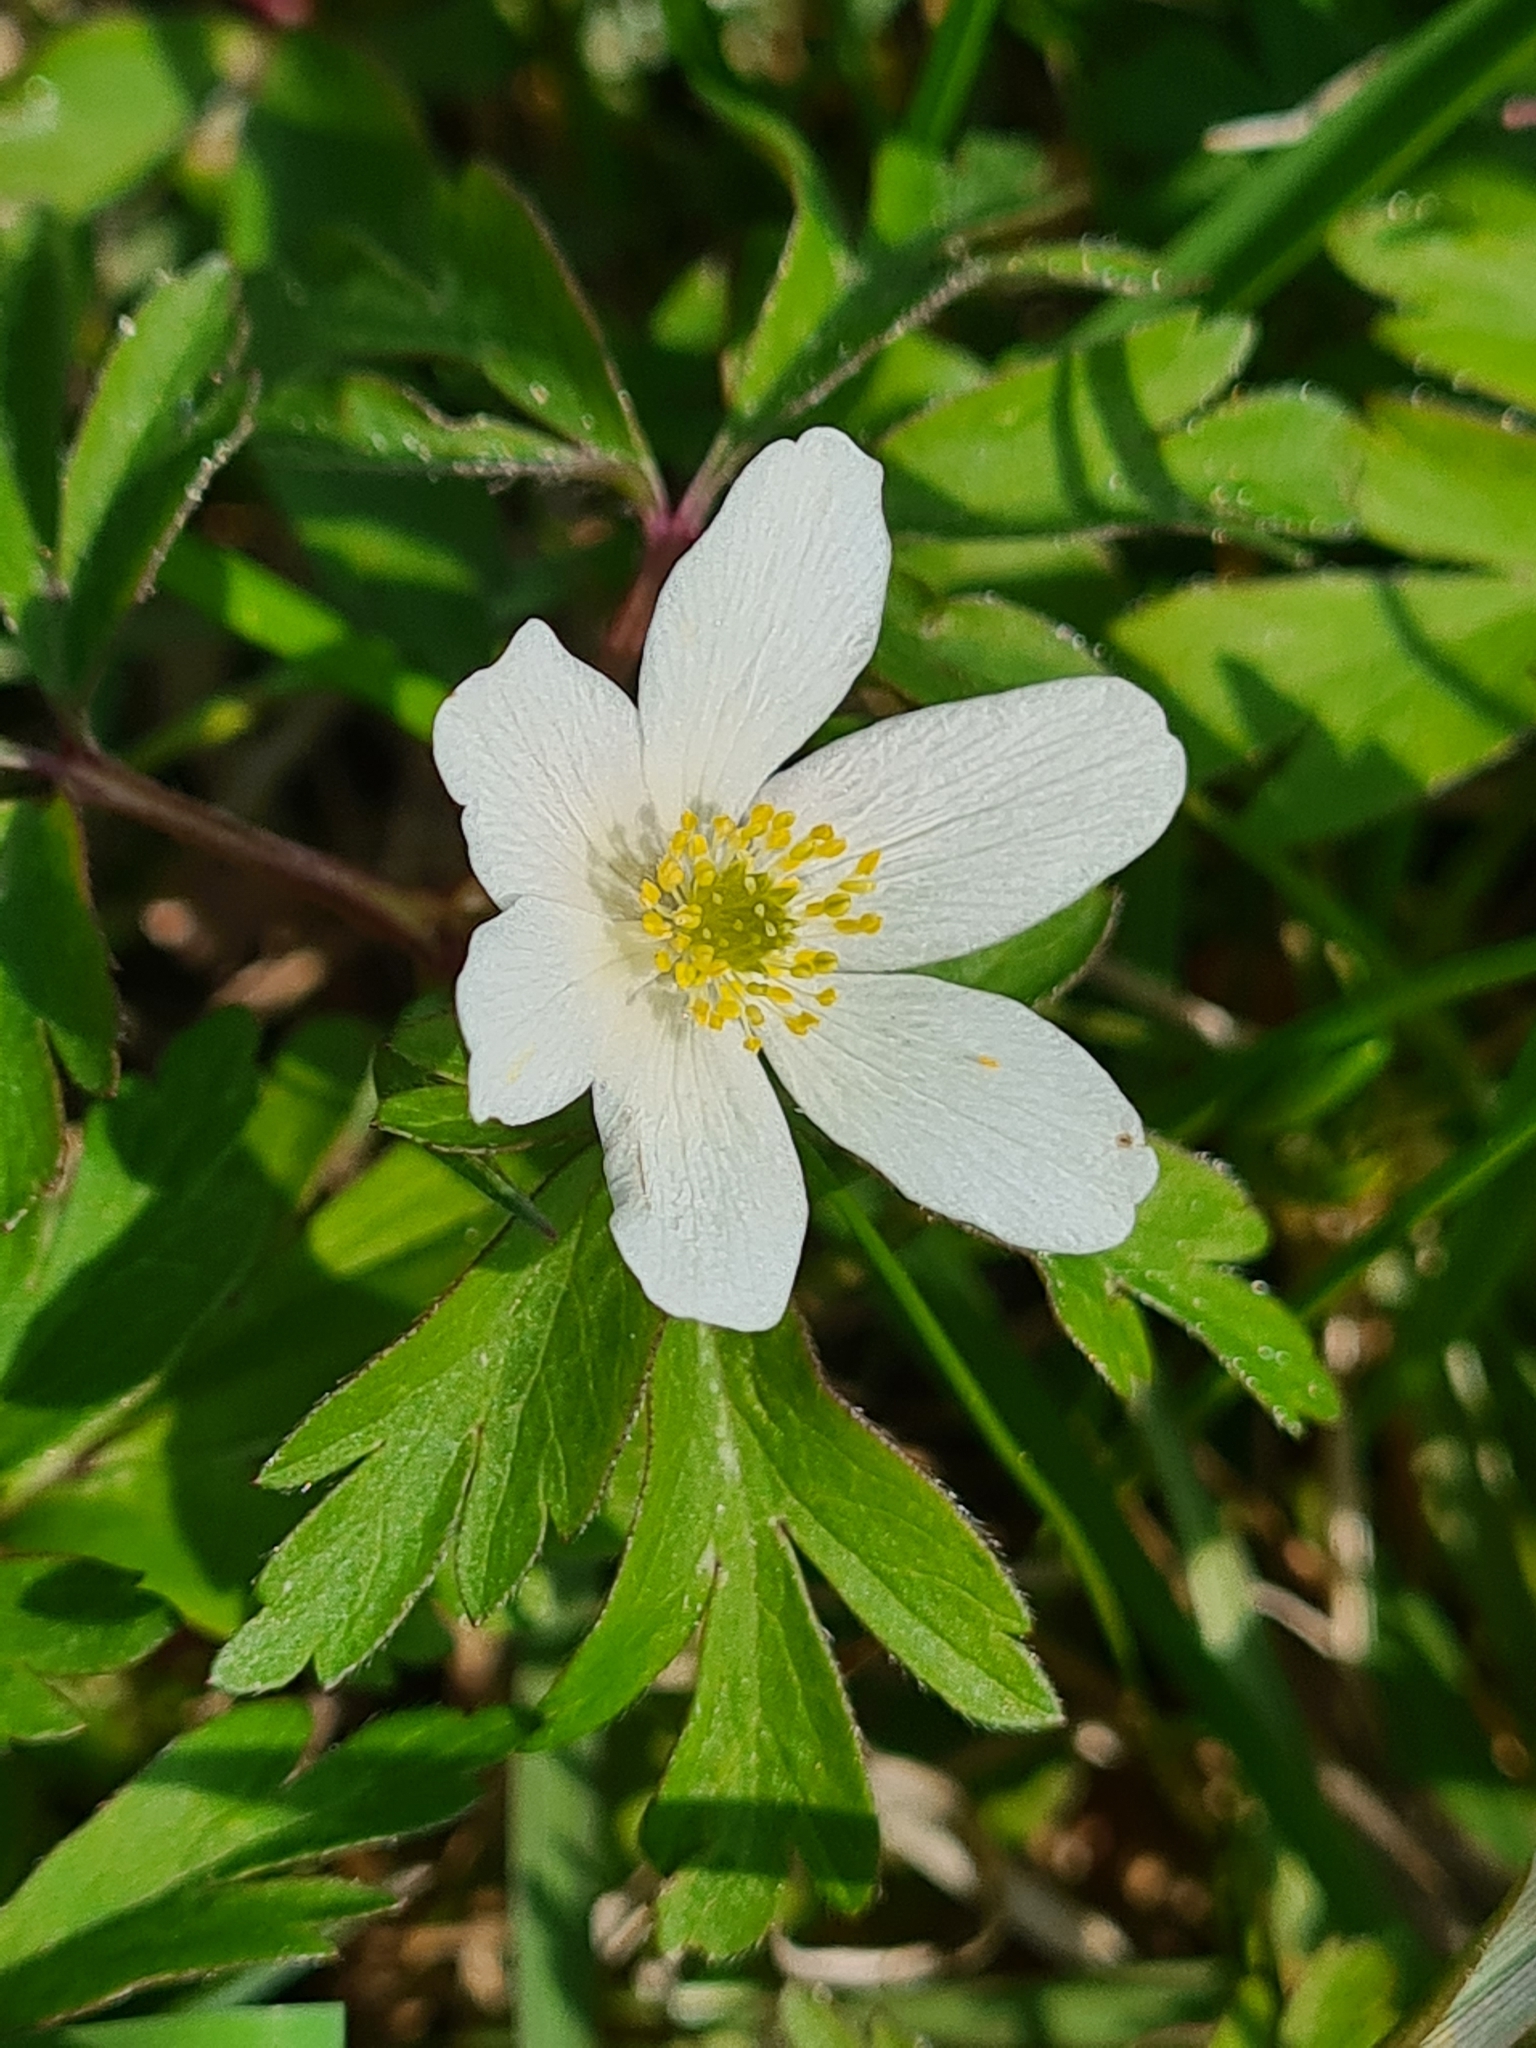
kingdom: Plantae
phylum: Tracheophyta
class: Magnoliopsida
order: Ranunculales
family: Ranunculaceae
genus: Anemone
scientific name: Anemone nemorosa
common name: Wood anemone
